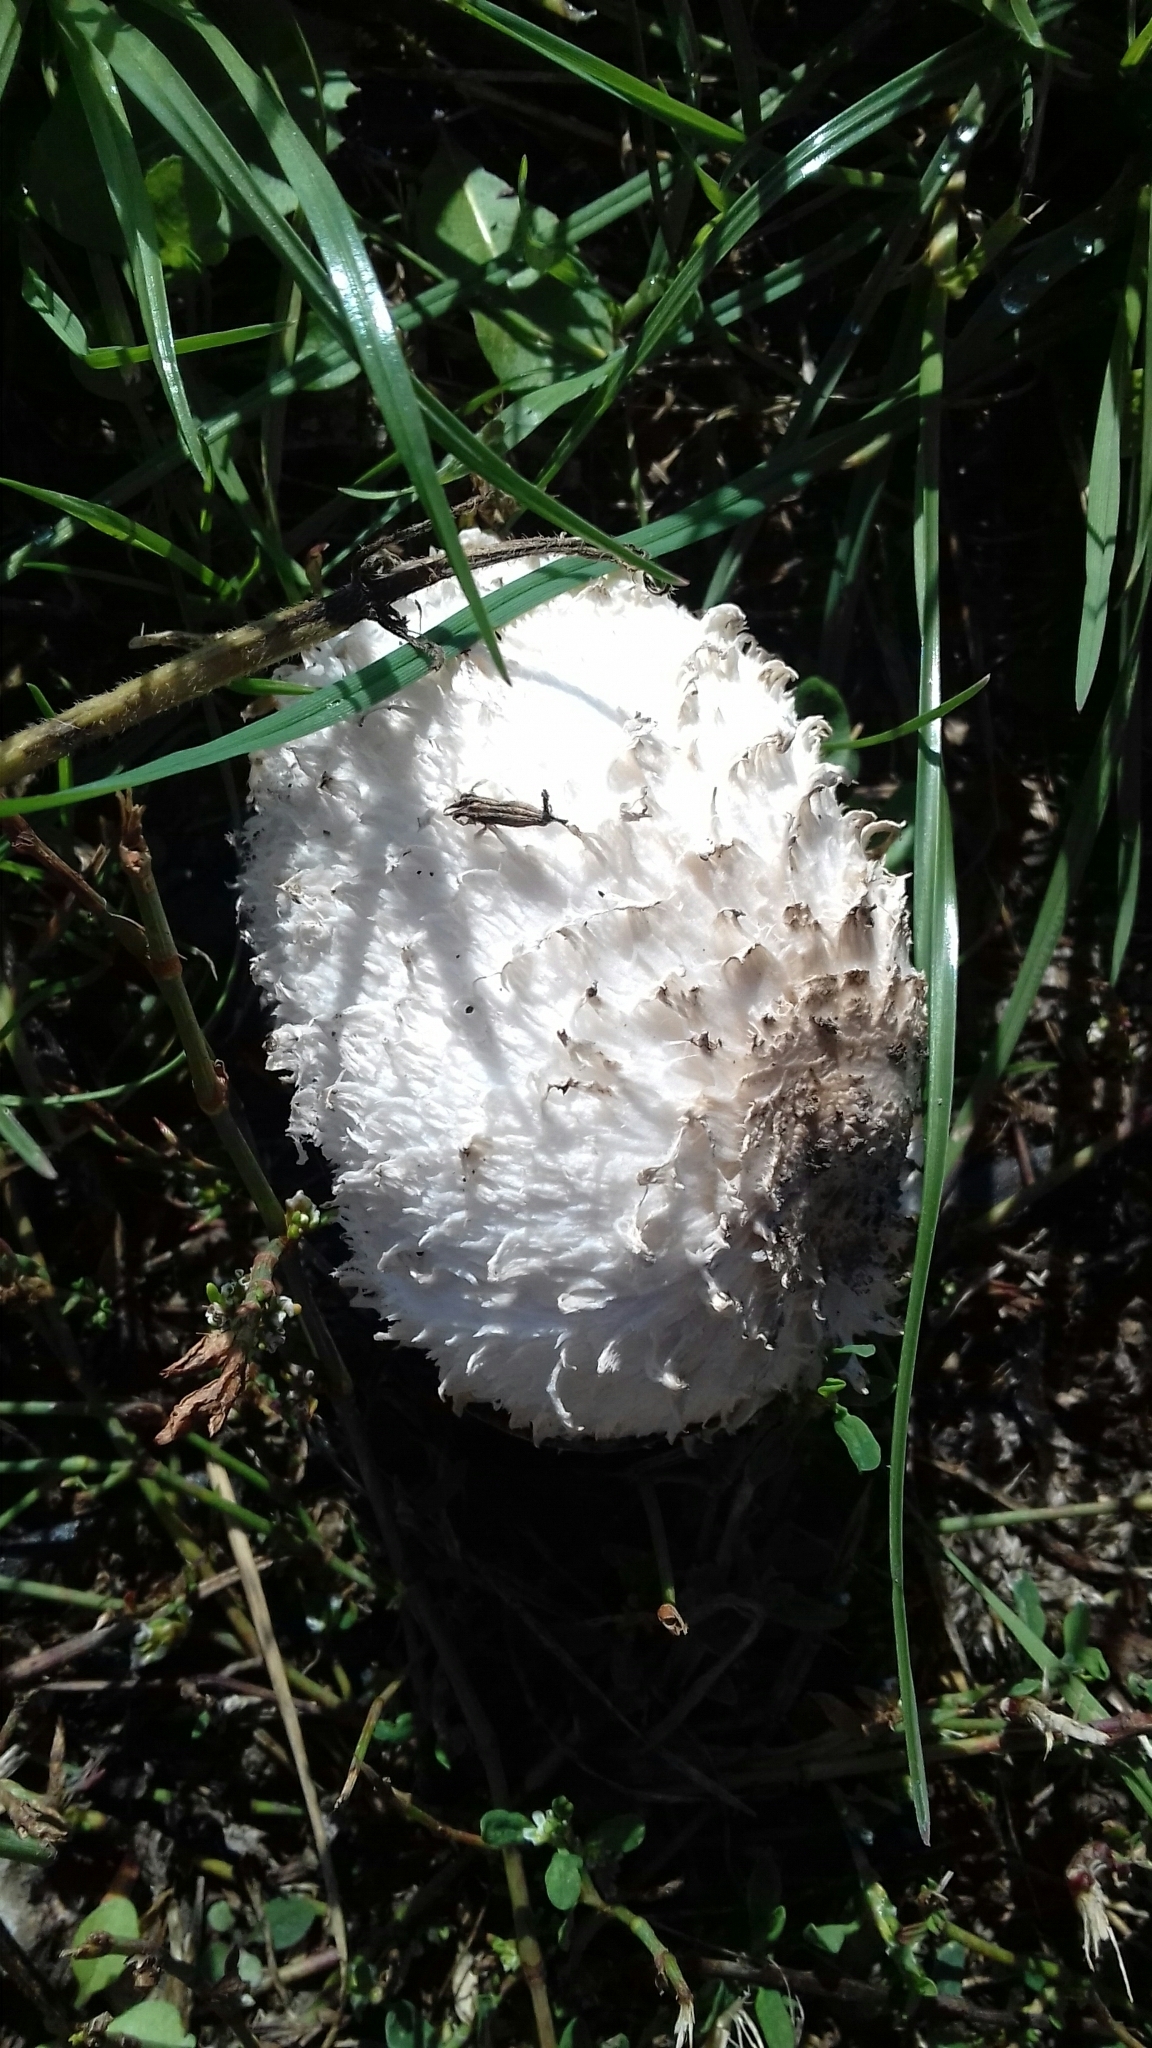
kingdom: Fungi
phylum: Basidiomycota
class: Agaricomycetes
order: Agaricales
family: Agaricaceae
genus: Coprinus
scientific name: Coprinus comatus
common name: Lawyer's wig
